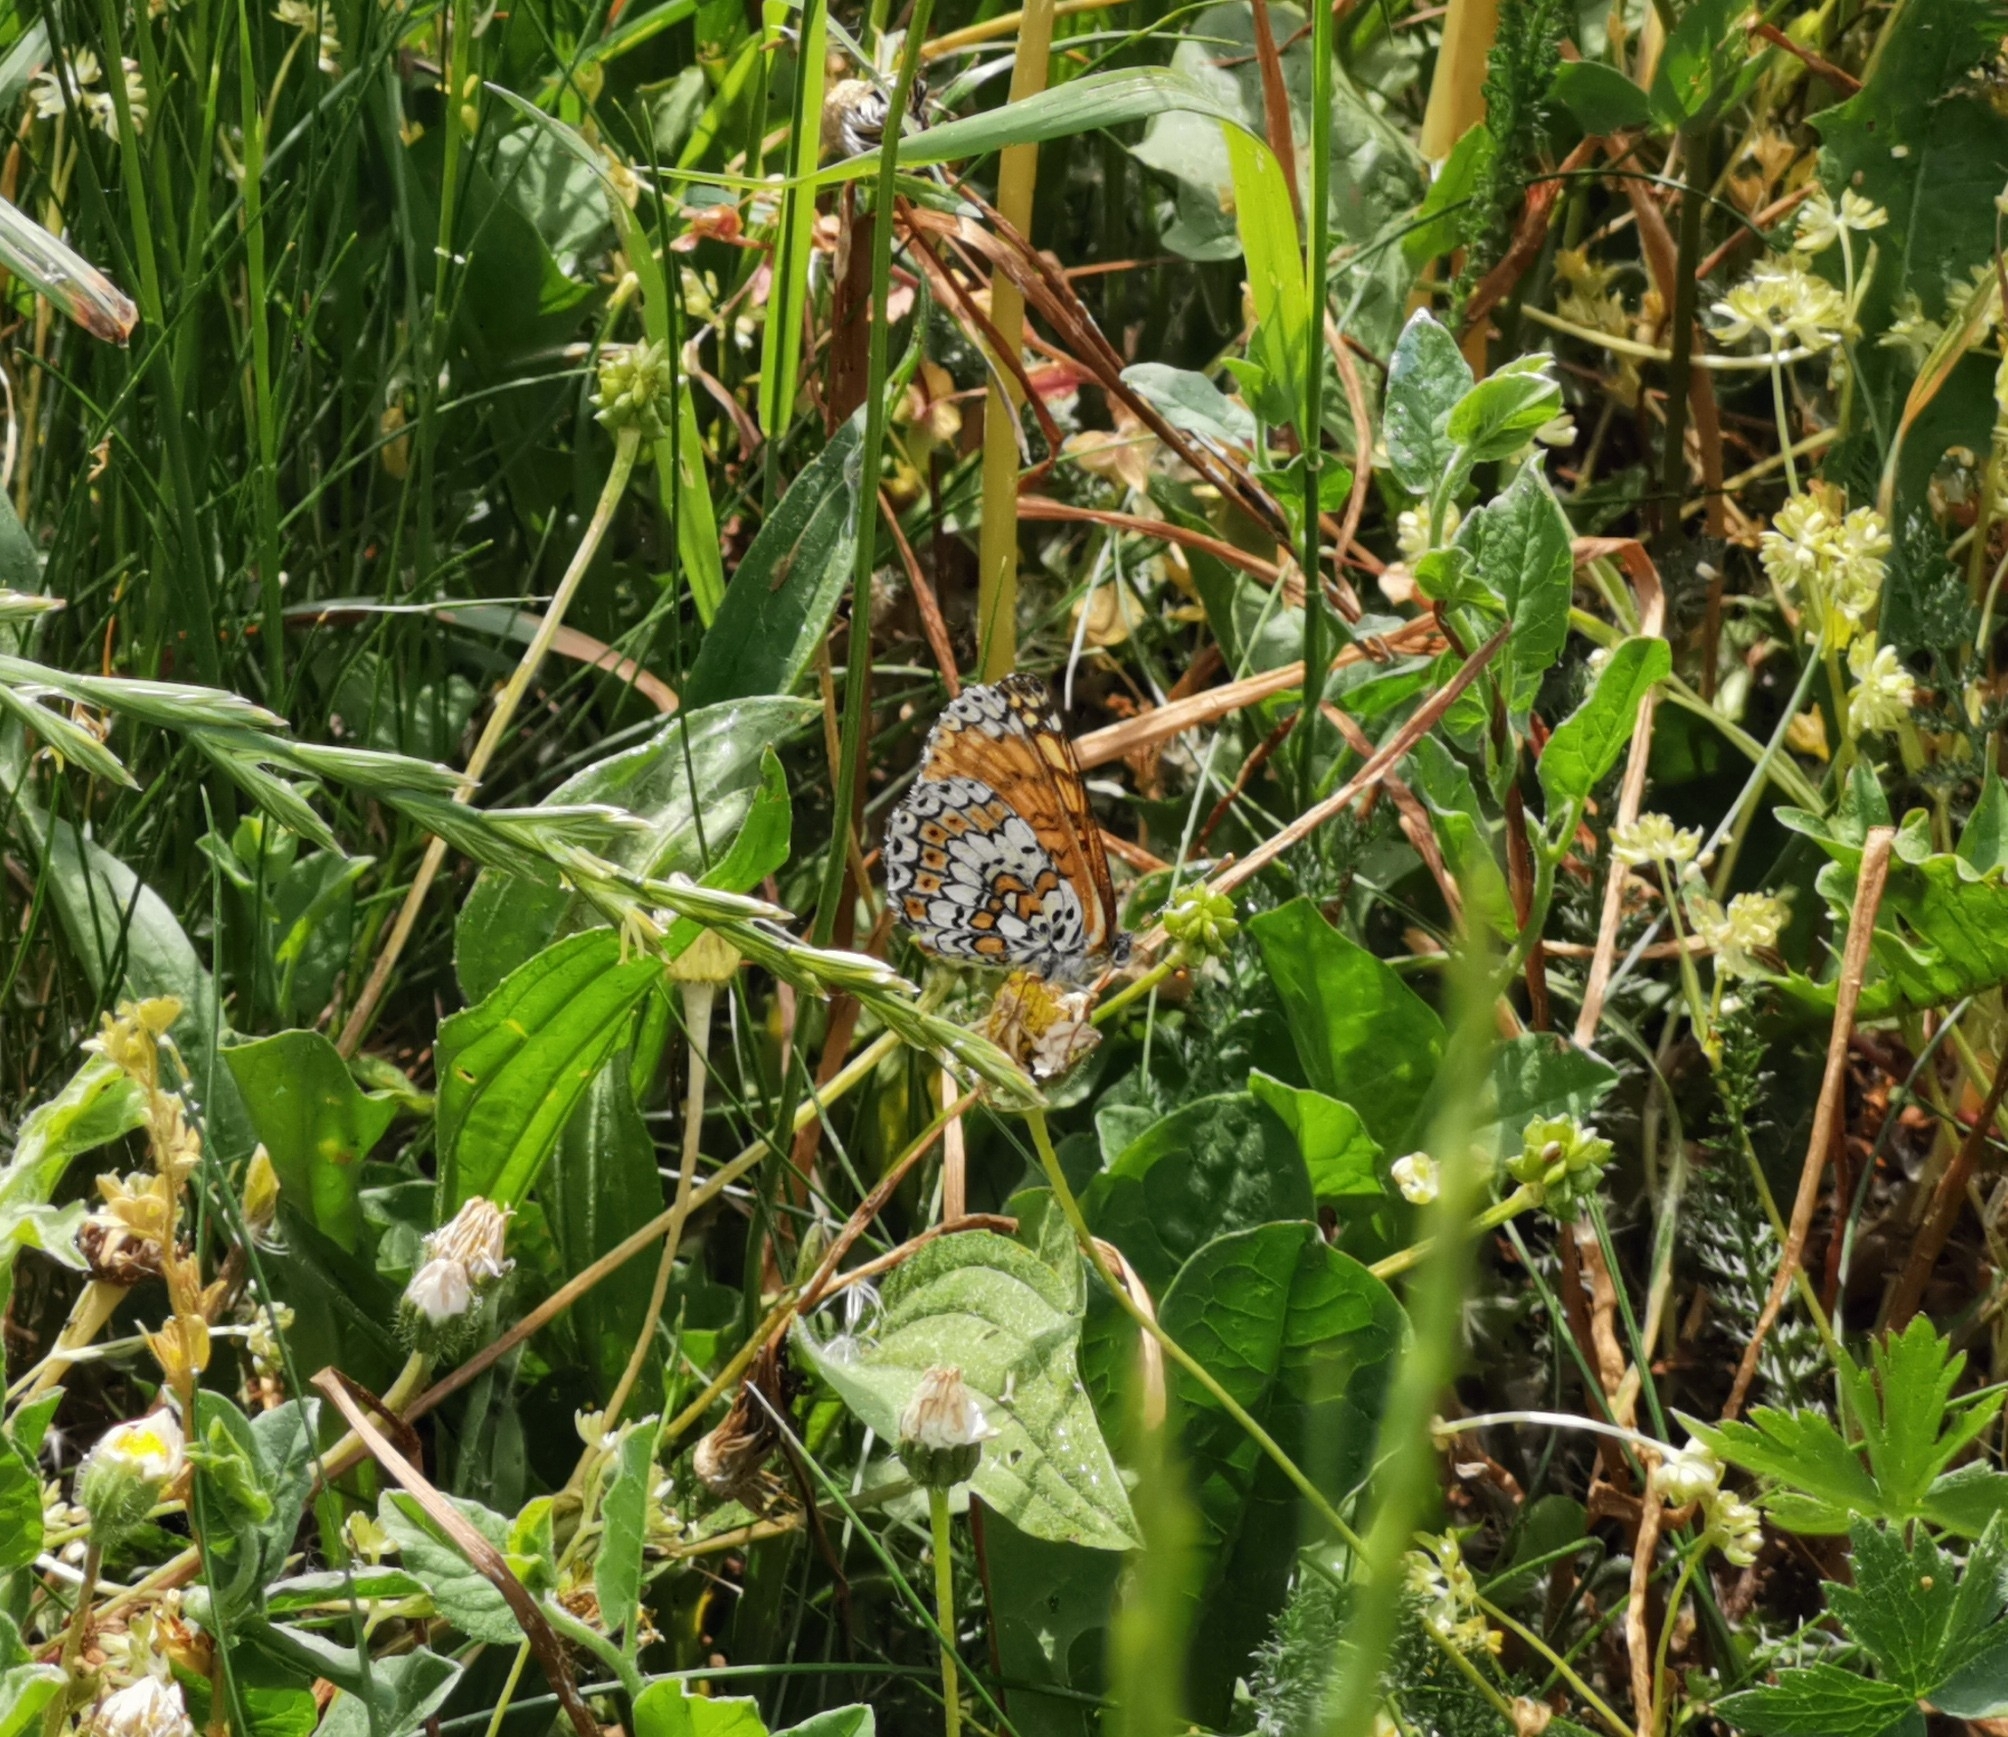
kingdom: Animalia
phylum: Arthropoda
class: Insecta
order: Lepidoptera
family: Nymphalidae
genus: Melitaea
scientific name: Melitaea cinxia
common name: Glanville fritillary
